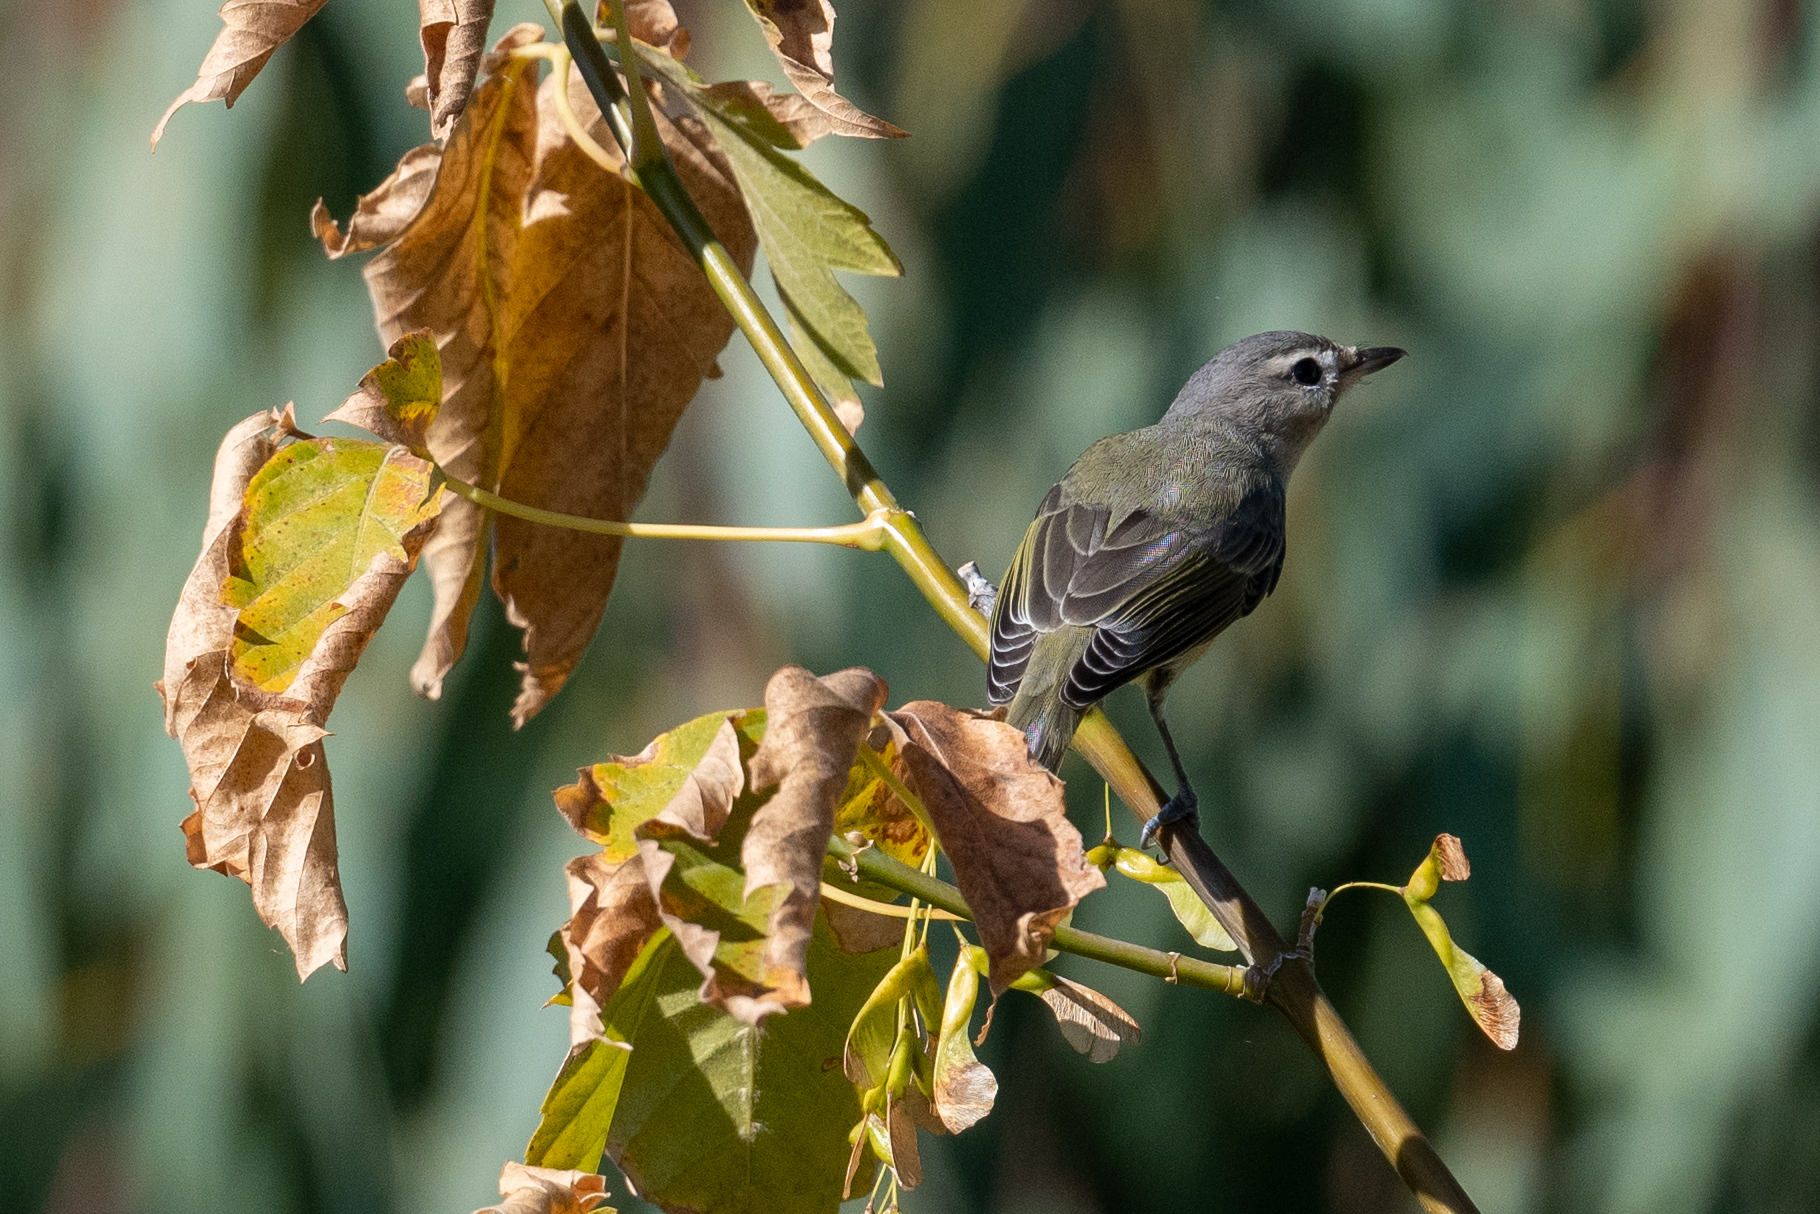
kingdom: Animalia
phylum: Chordata
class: Aves
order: Passeriformes
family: Vireonidae
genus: Vireo
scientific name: Vireo gilvus
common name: Warbling vireo
